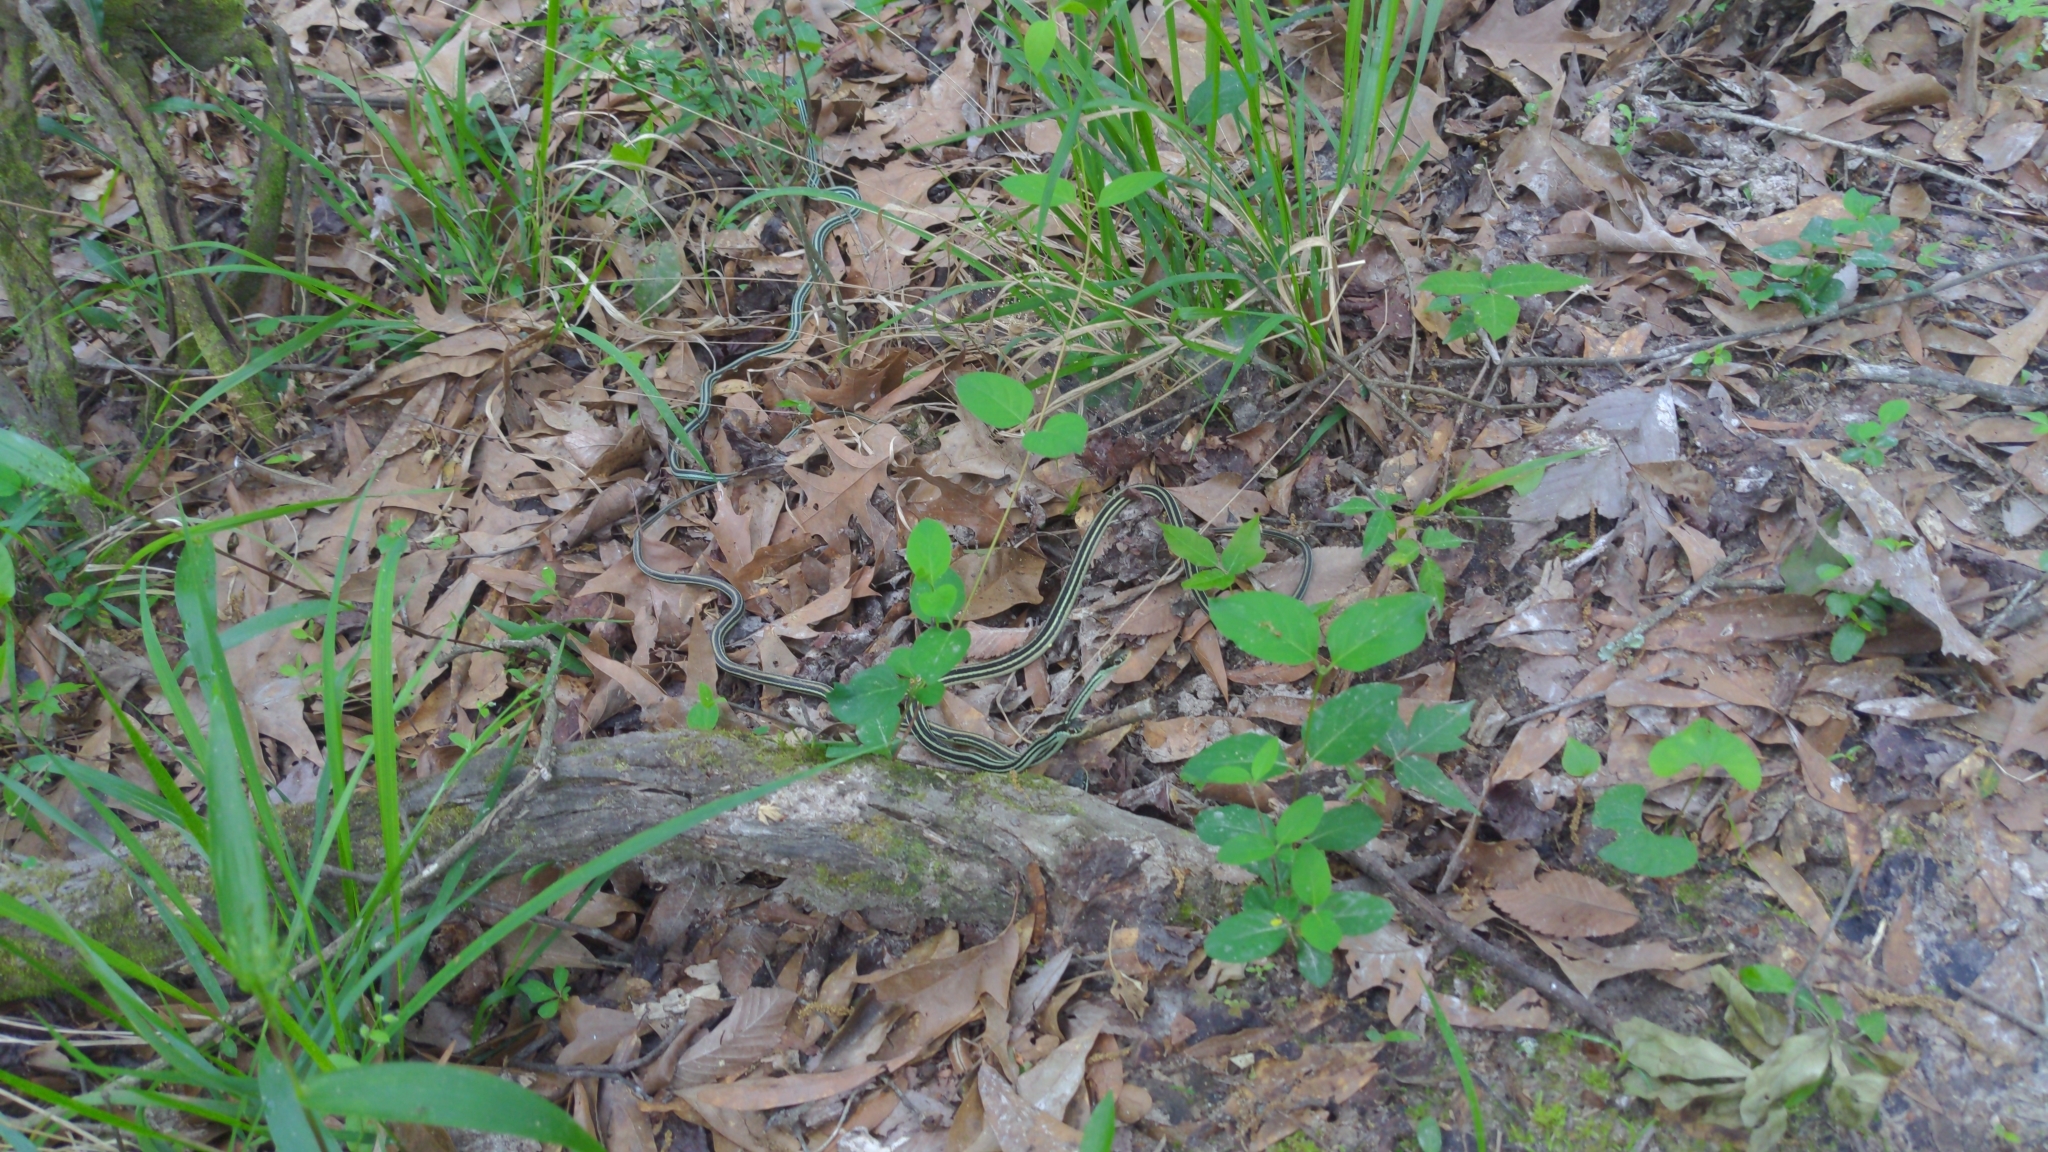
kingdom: Animalia
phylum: Chordata
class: Squamata
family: Colubridae
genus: Thamnophis
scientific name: Thamnophis proximus
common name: Western ribbon snake
